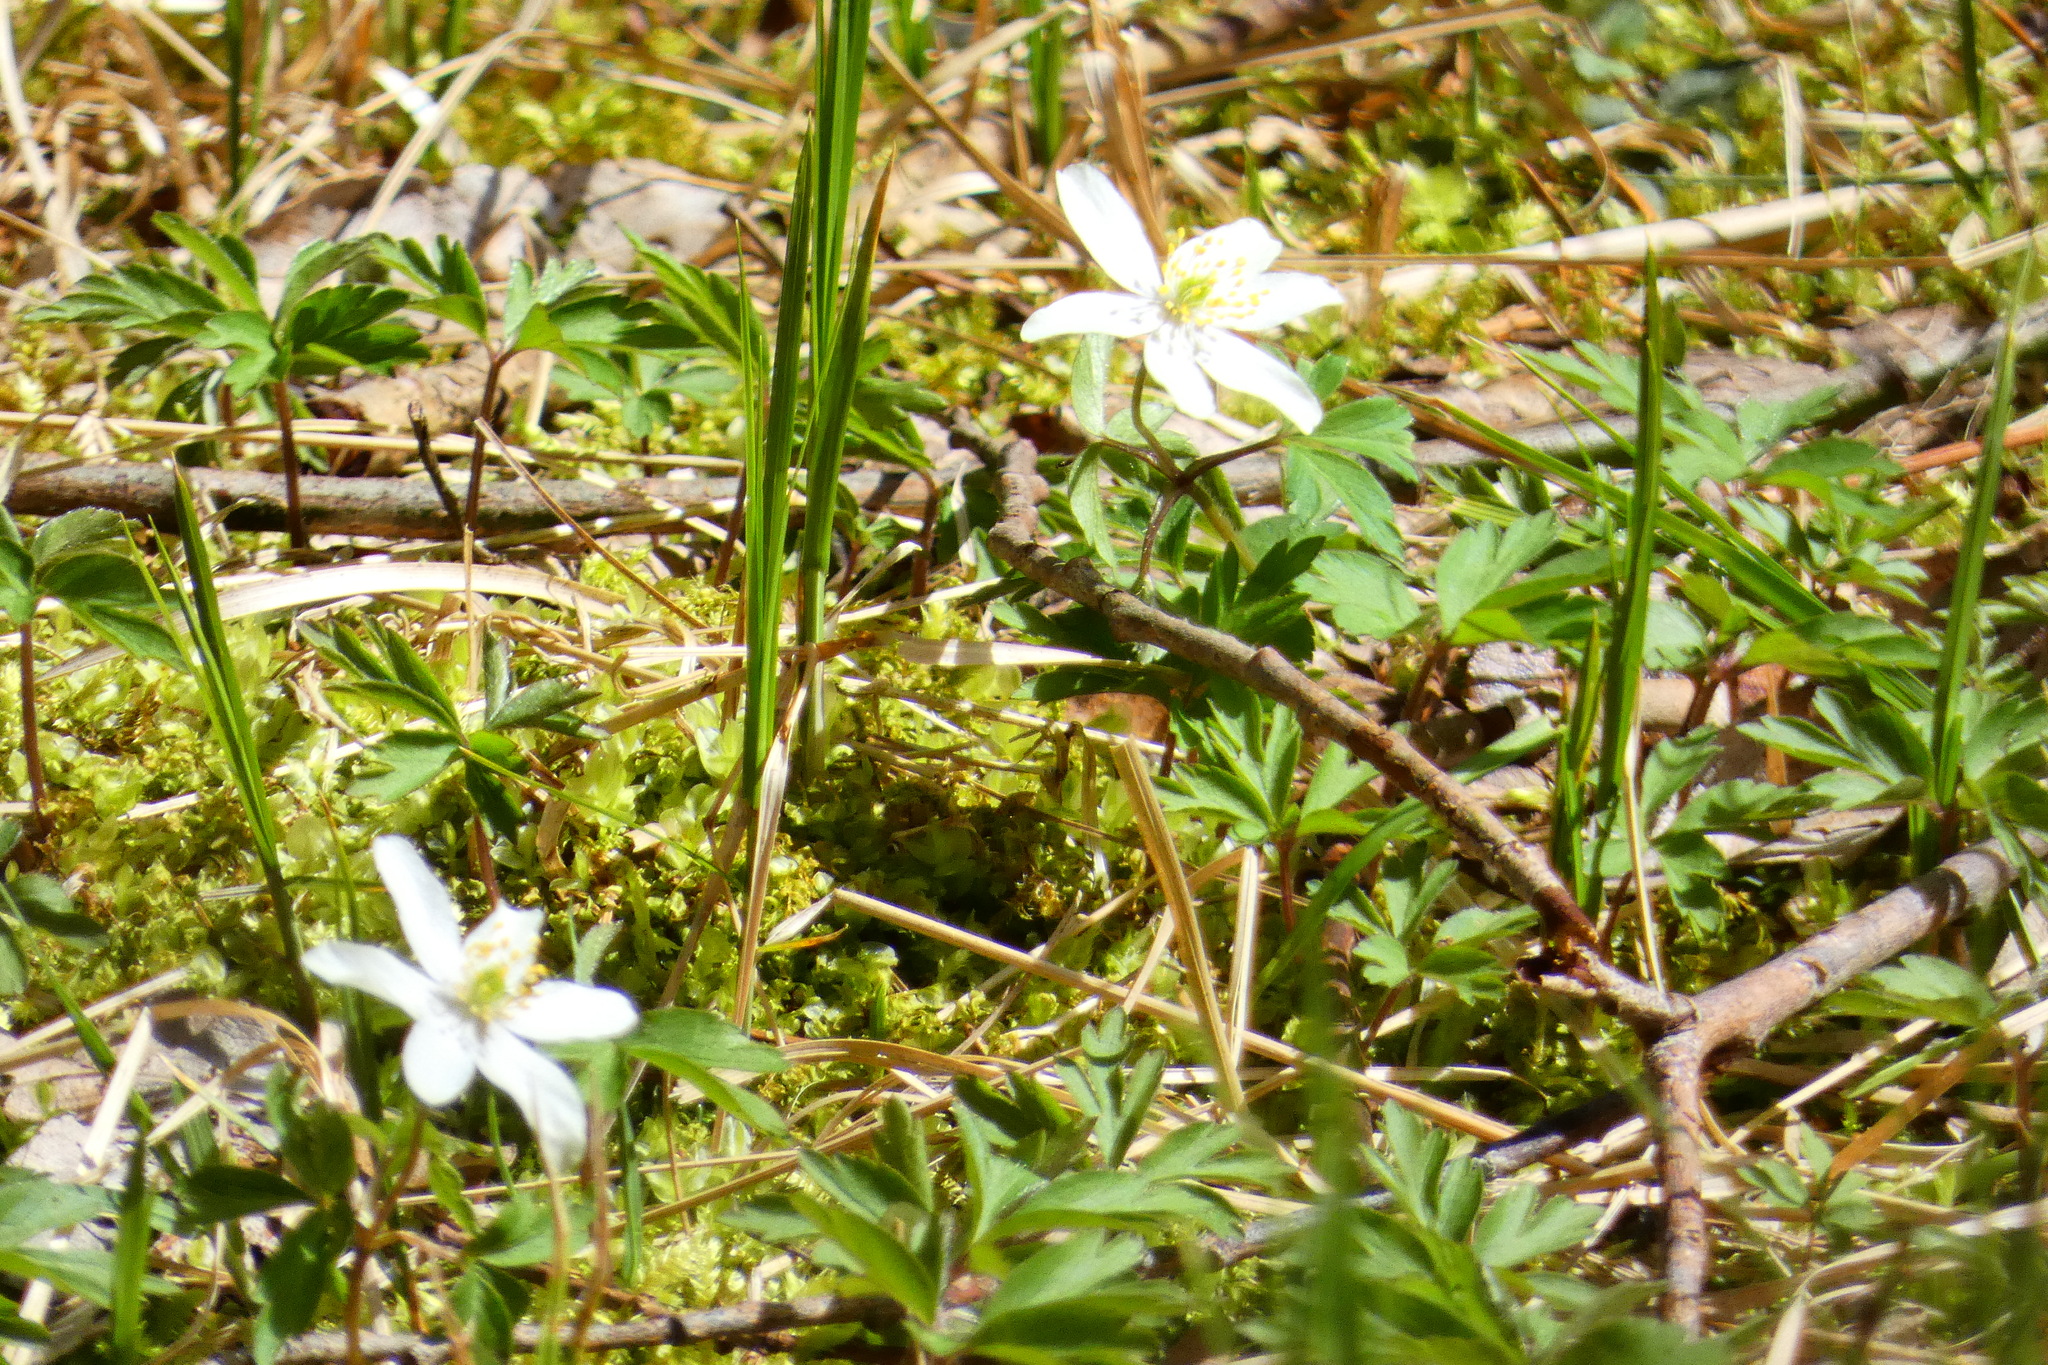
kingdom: Plantae
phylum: Tracheophyta
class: Magnoliopsida
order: Ranunculales
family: Ranunculaceae
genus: Anemone
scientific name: Anemone nemorosa
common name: Wood anemone
